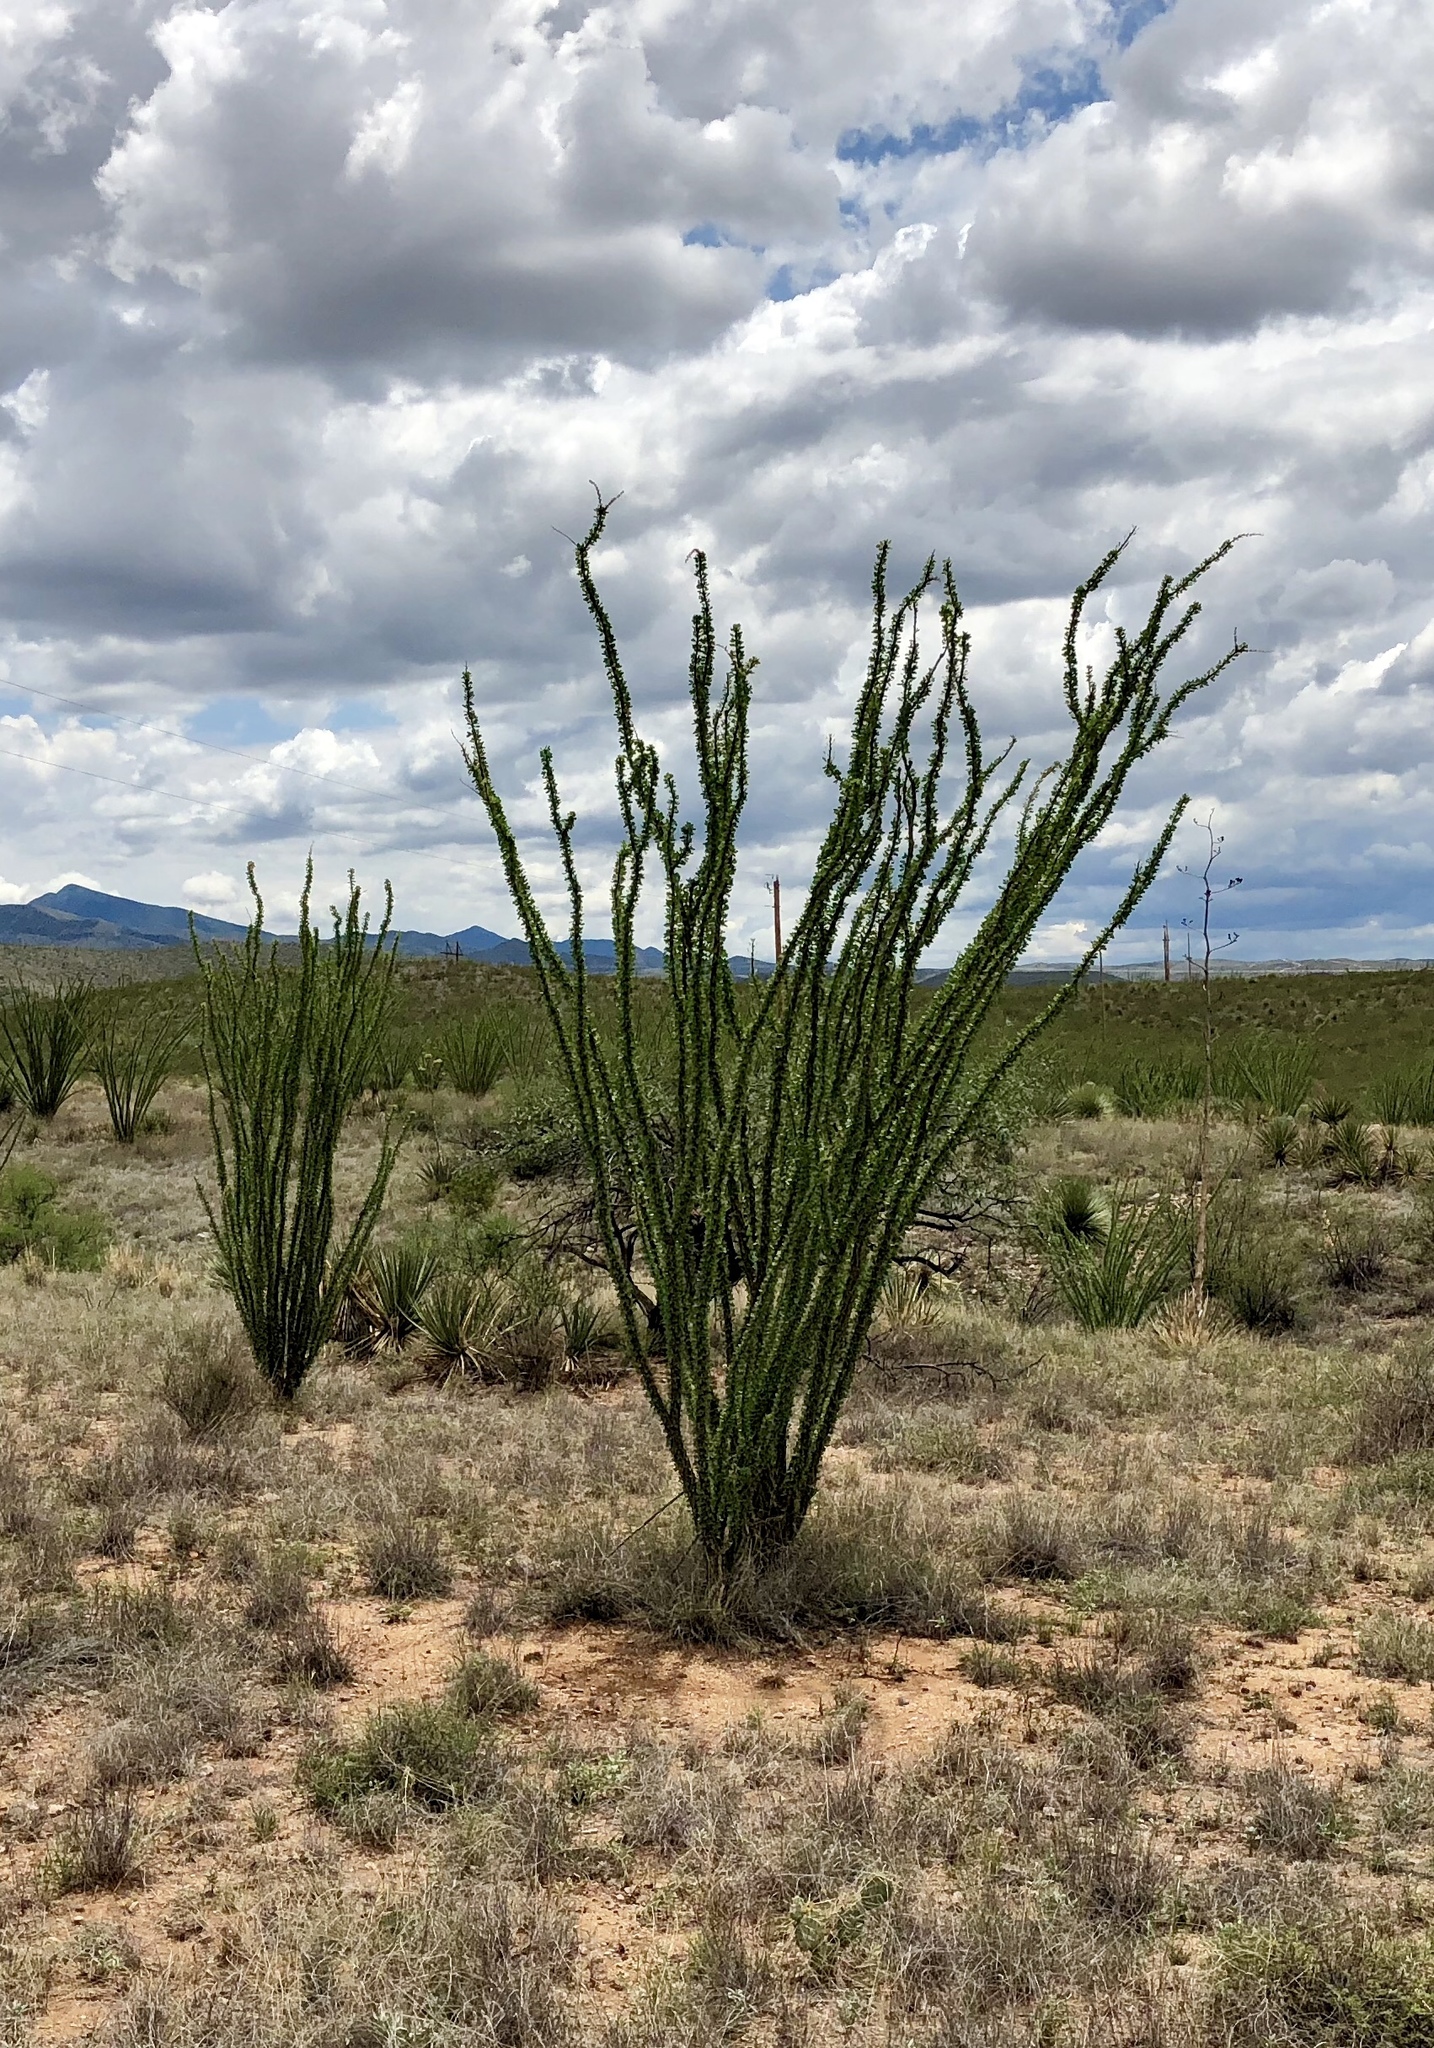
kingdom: Plantae
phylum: Tracheophyta
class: Magnoliopsida
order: Ericales
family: Fouquieriaceae
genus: Fouquieria
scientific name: Fouquieria splendens
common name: Vine-cactus
